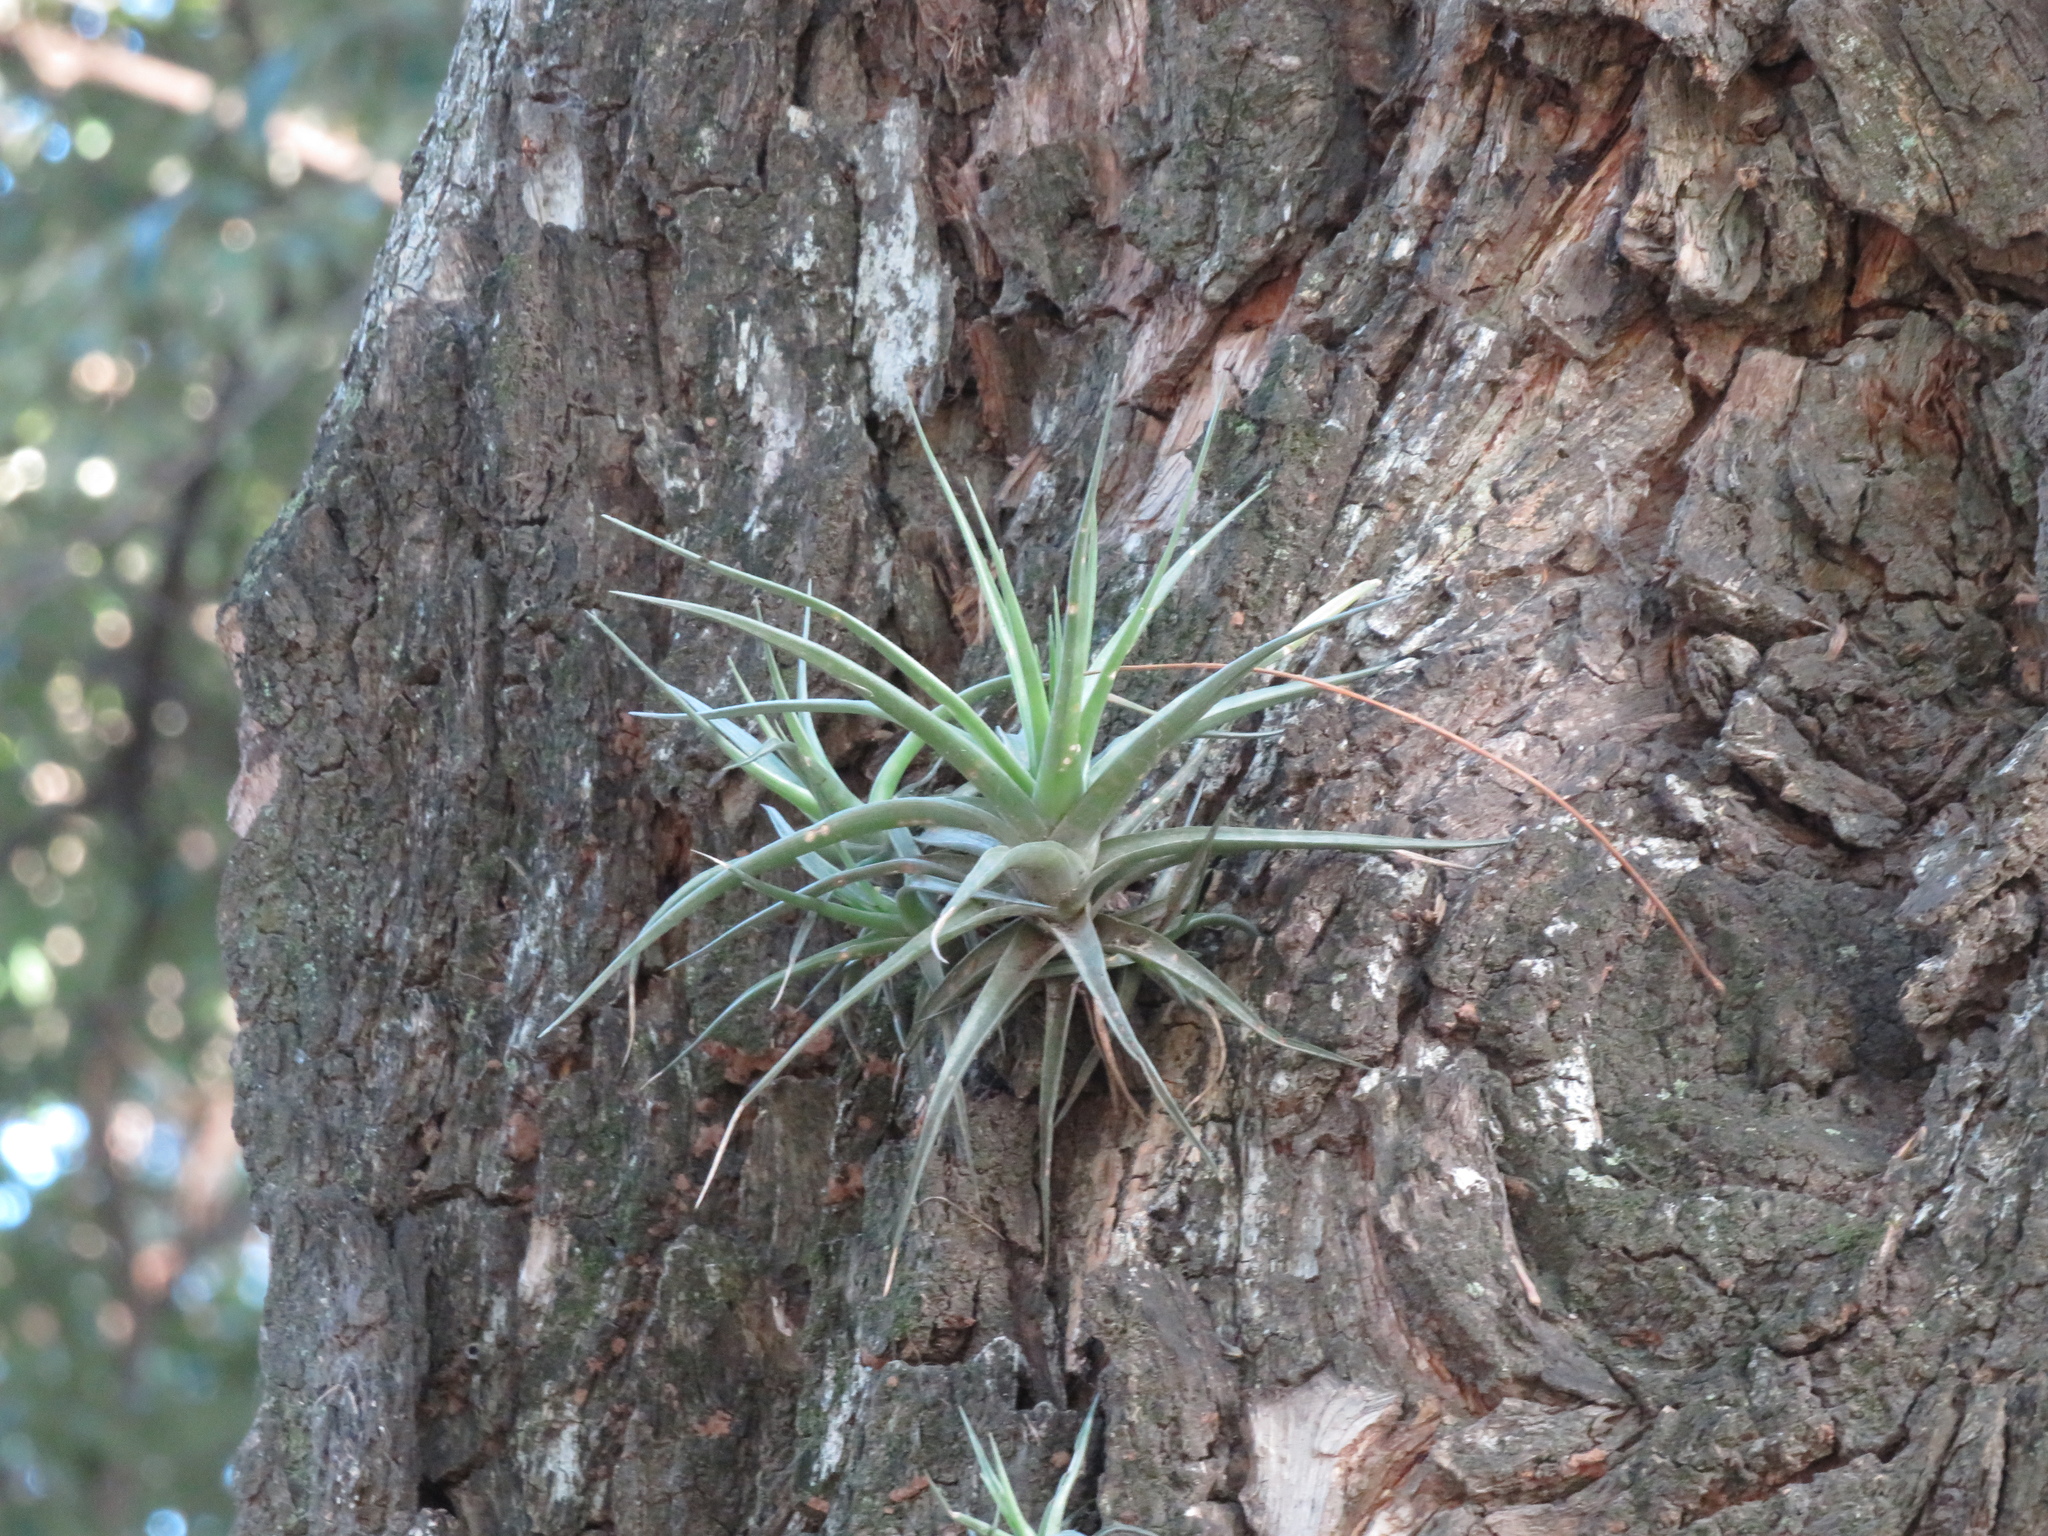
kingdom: Plantae
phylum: Tracheophyta
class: Liliopsida
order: Poales
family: Bromeliaceae
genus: Tillandsia
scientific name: Tillandsia aeranthos
